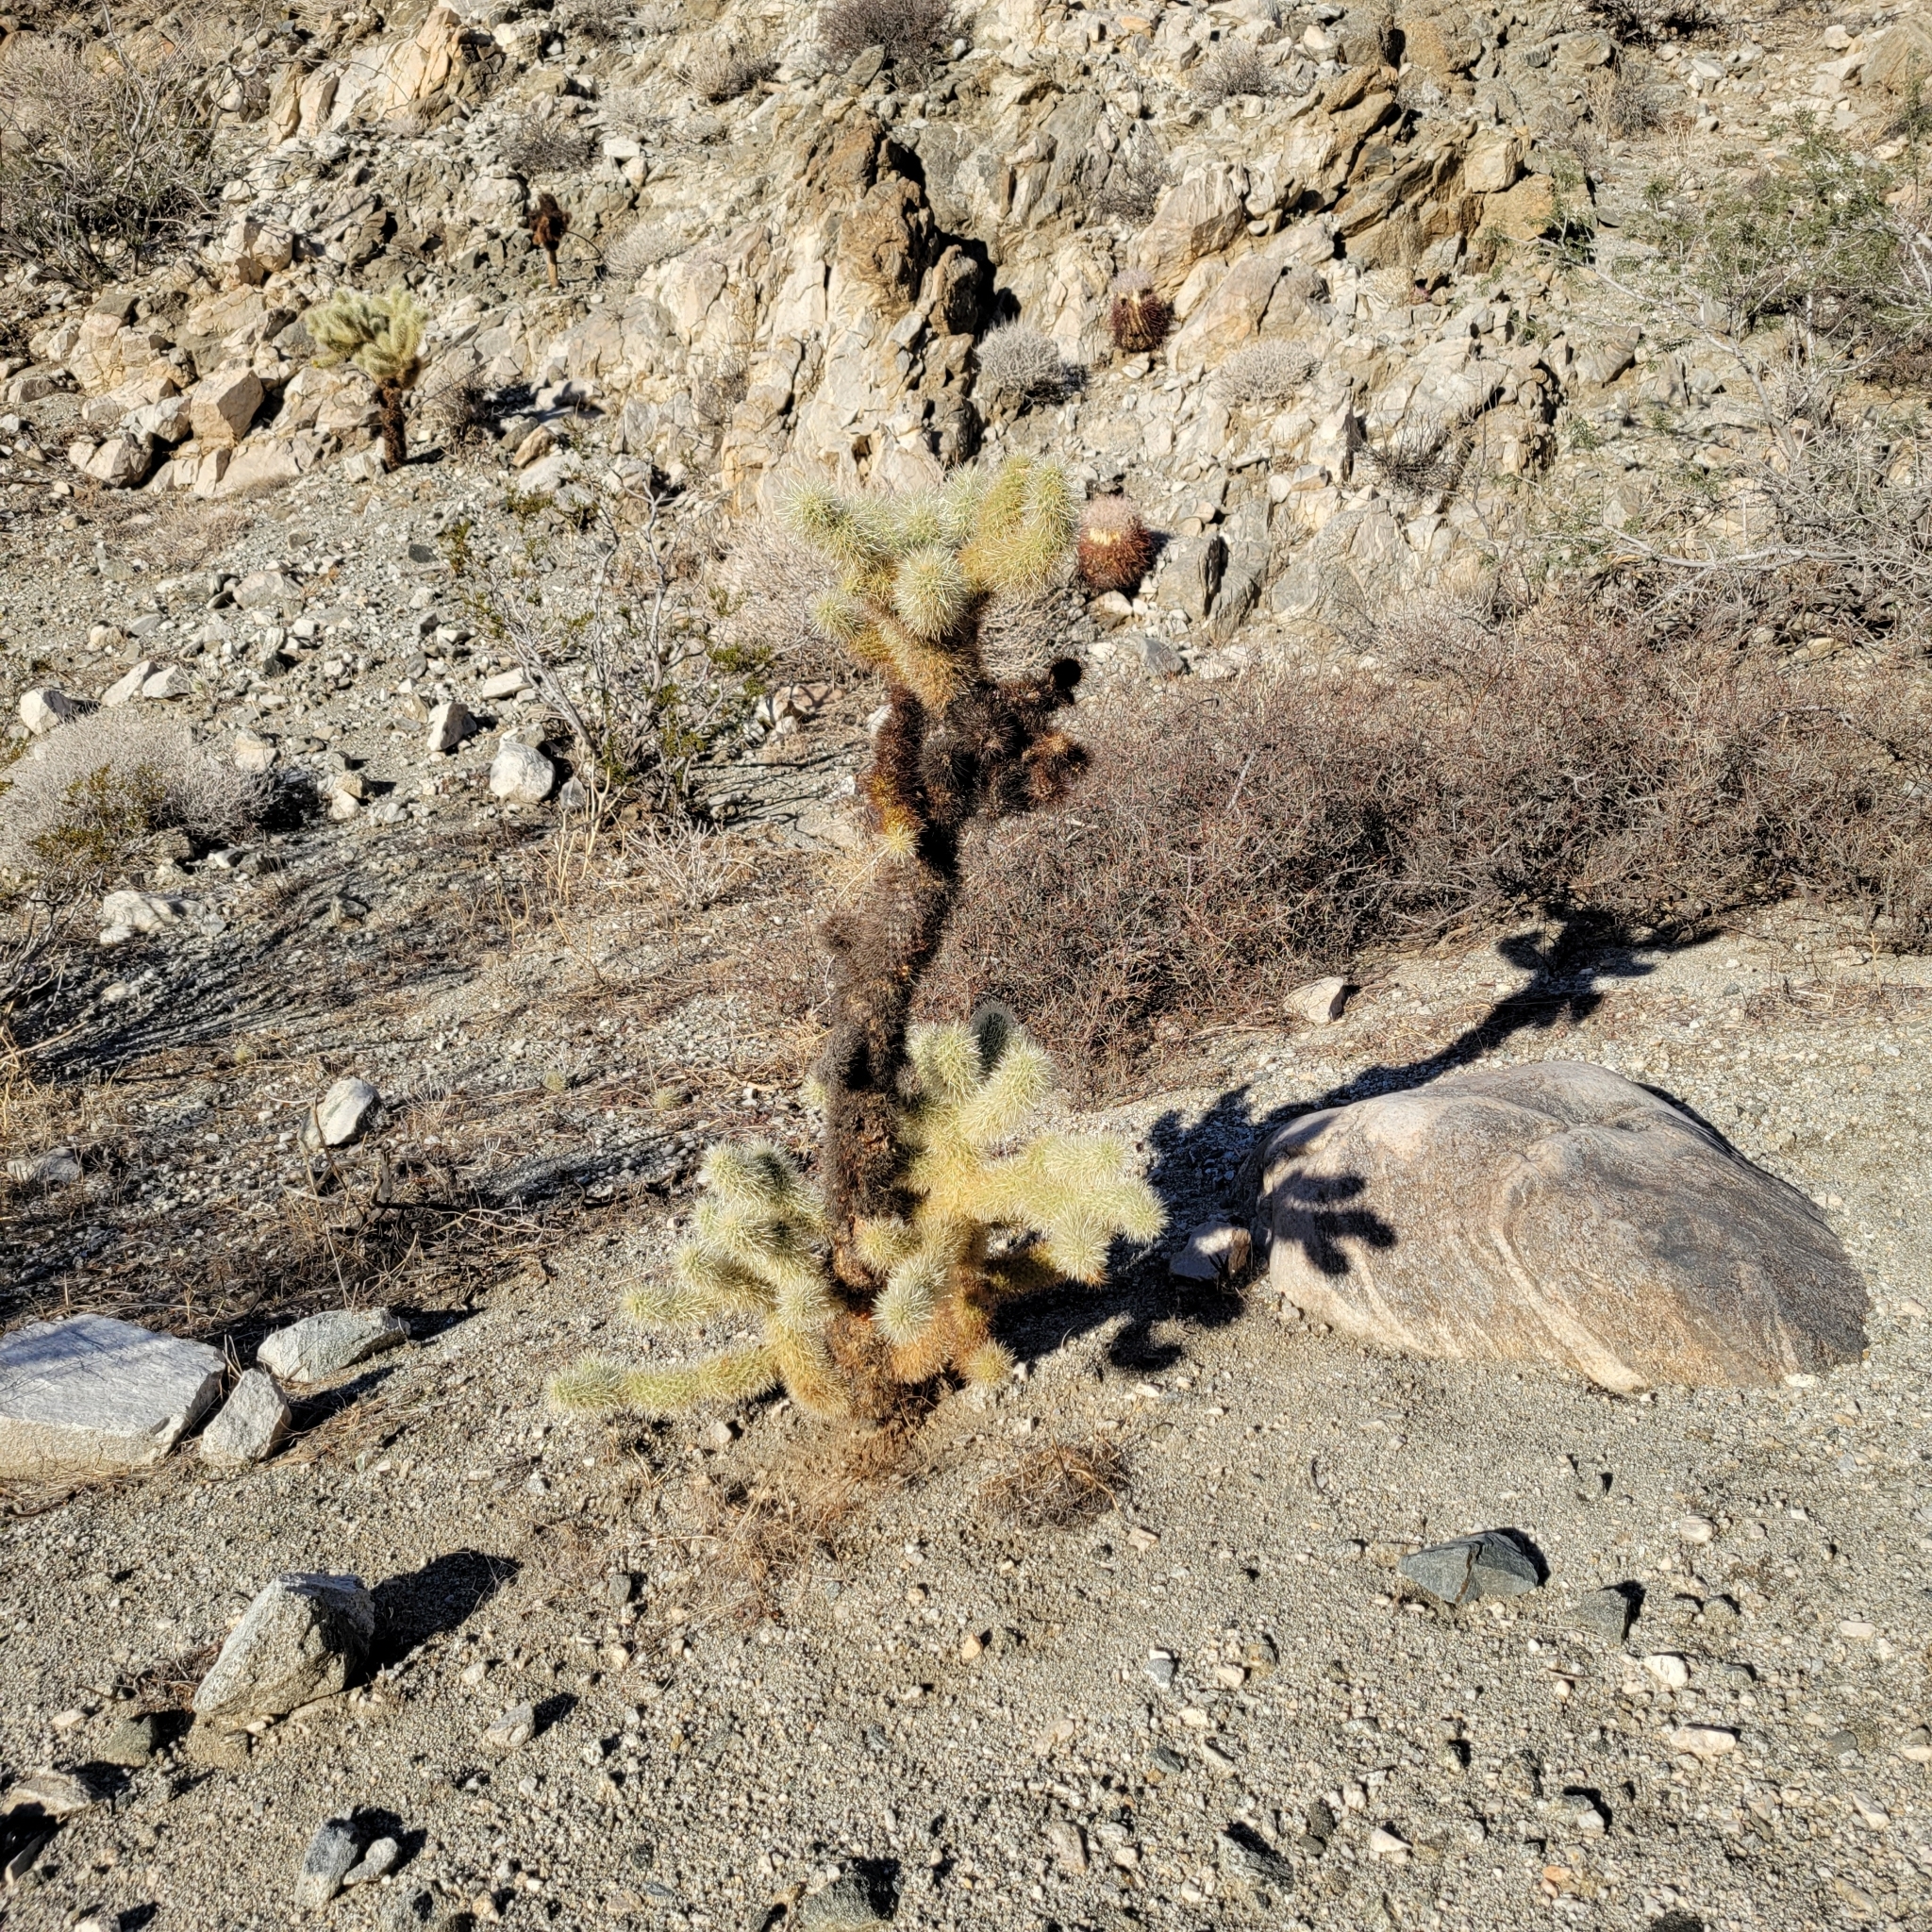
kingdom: Plantae
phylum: Tracheophyta
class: Magnoliopsida
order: Caryophyllales
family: Cactaceae
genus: Cylindropuntia
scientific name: Cylindropuntia fosbergii
